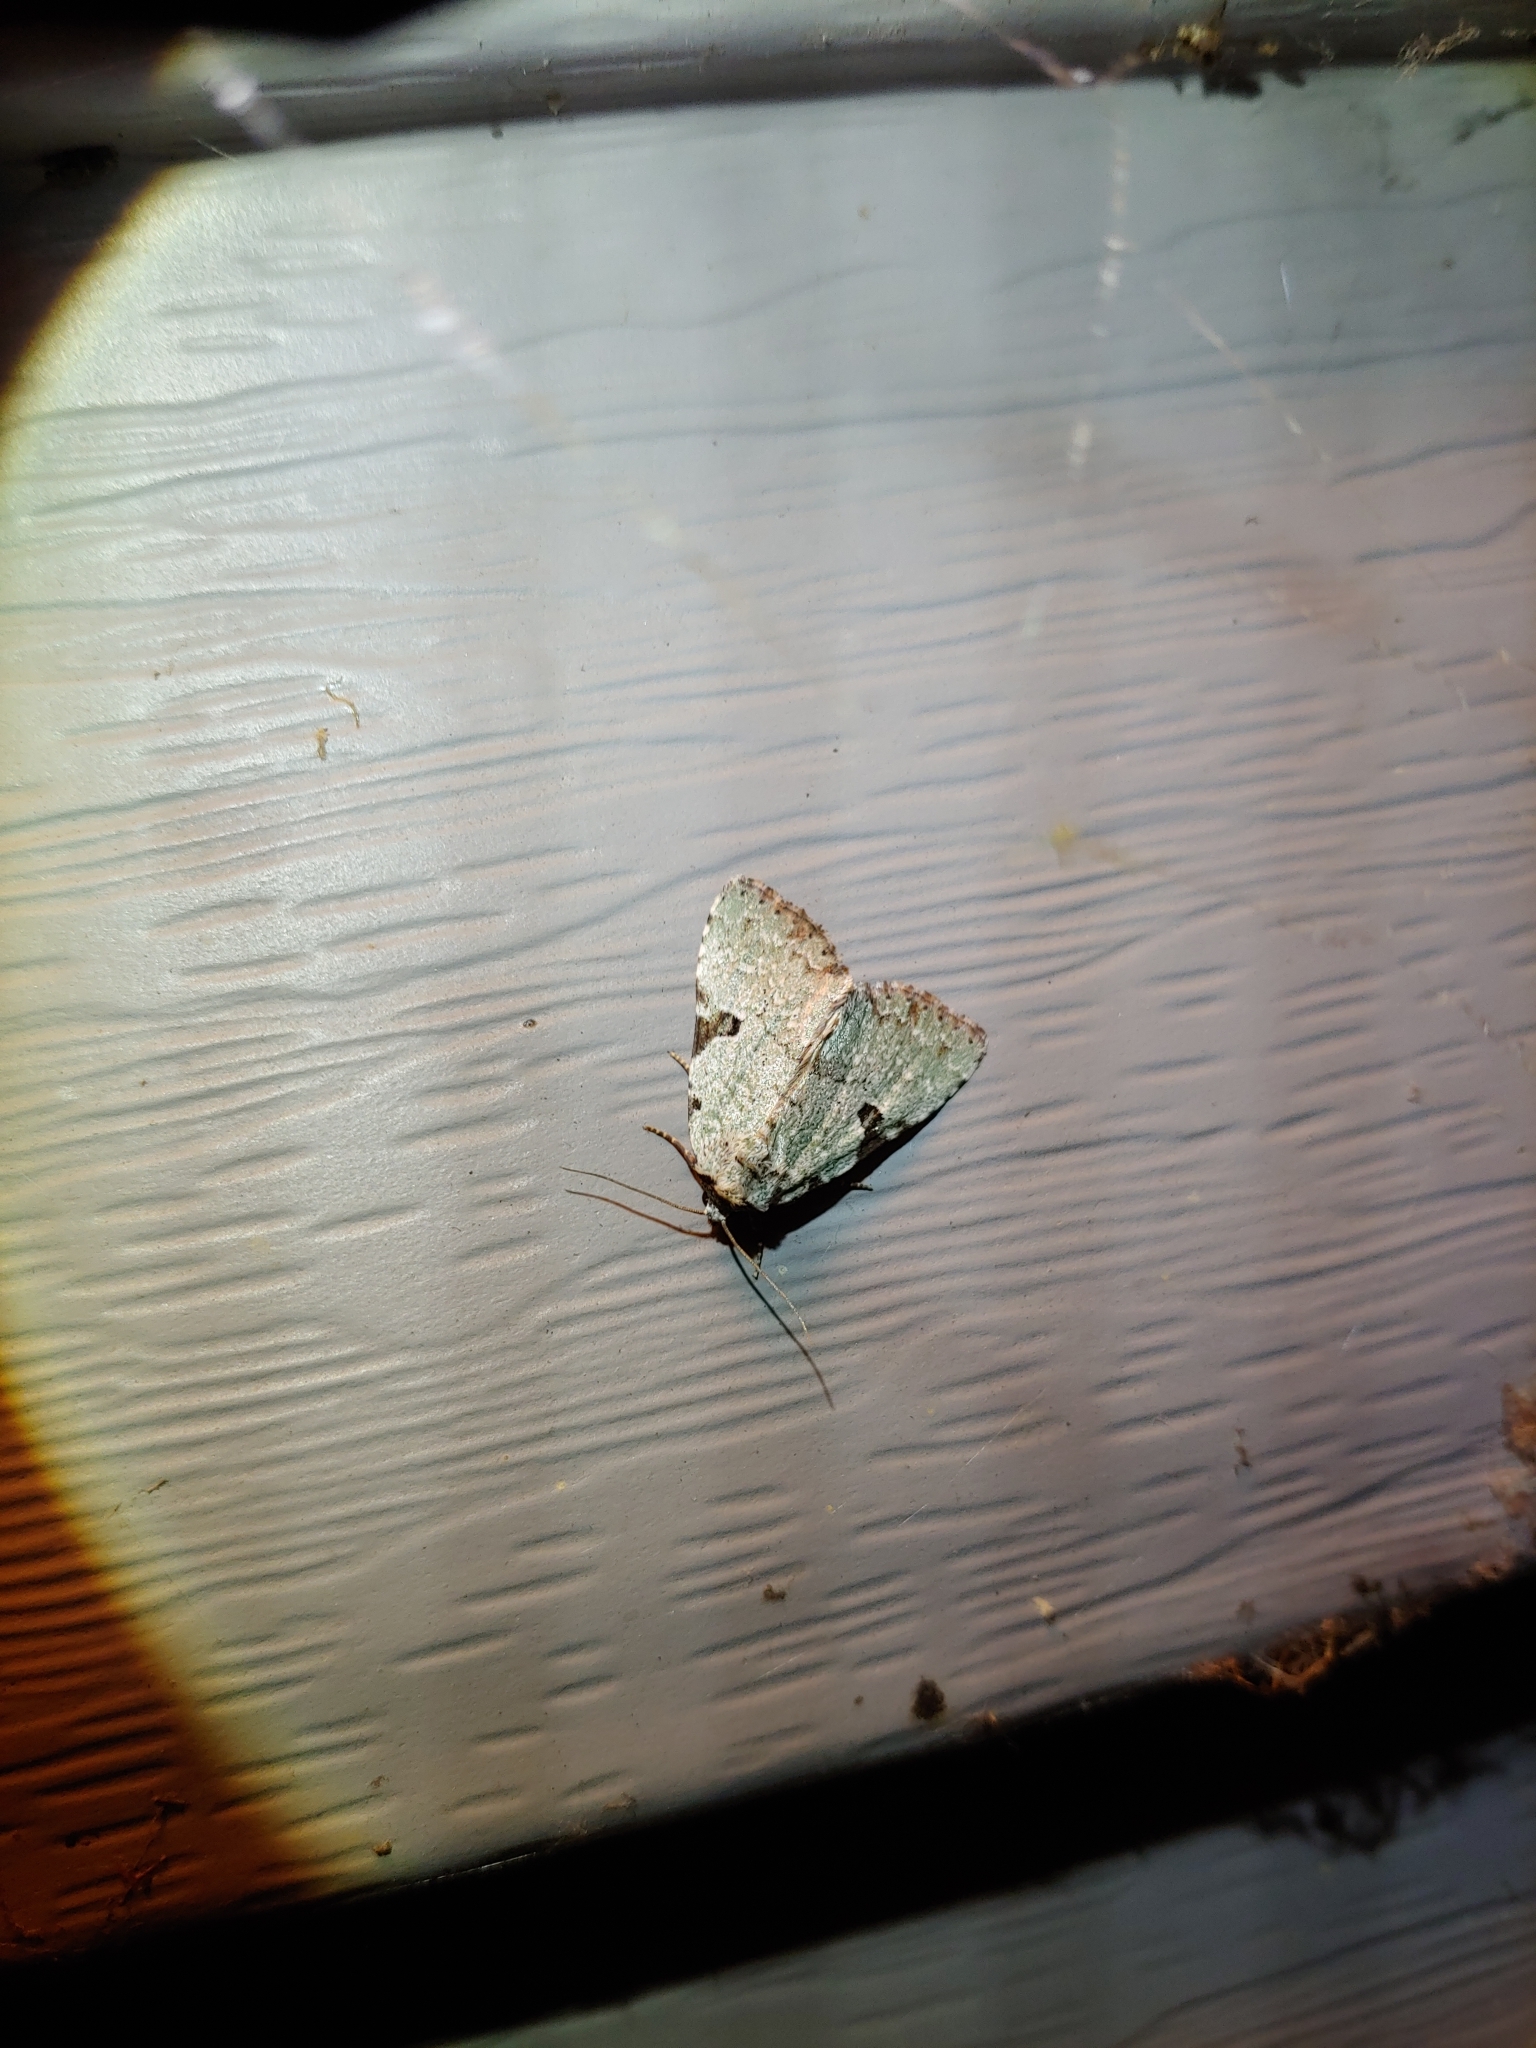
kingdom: Animalia
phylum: Arthropoda
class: Insecta
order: Lepidoptera
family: Noctuidae
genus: Leuconycta
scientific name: Leuconycta diphteroides
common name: Green leuconycta moth
